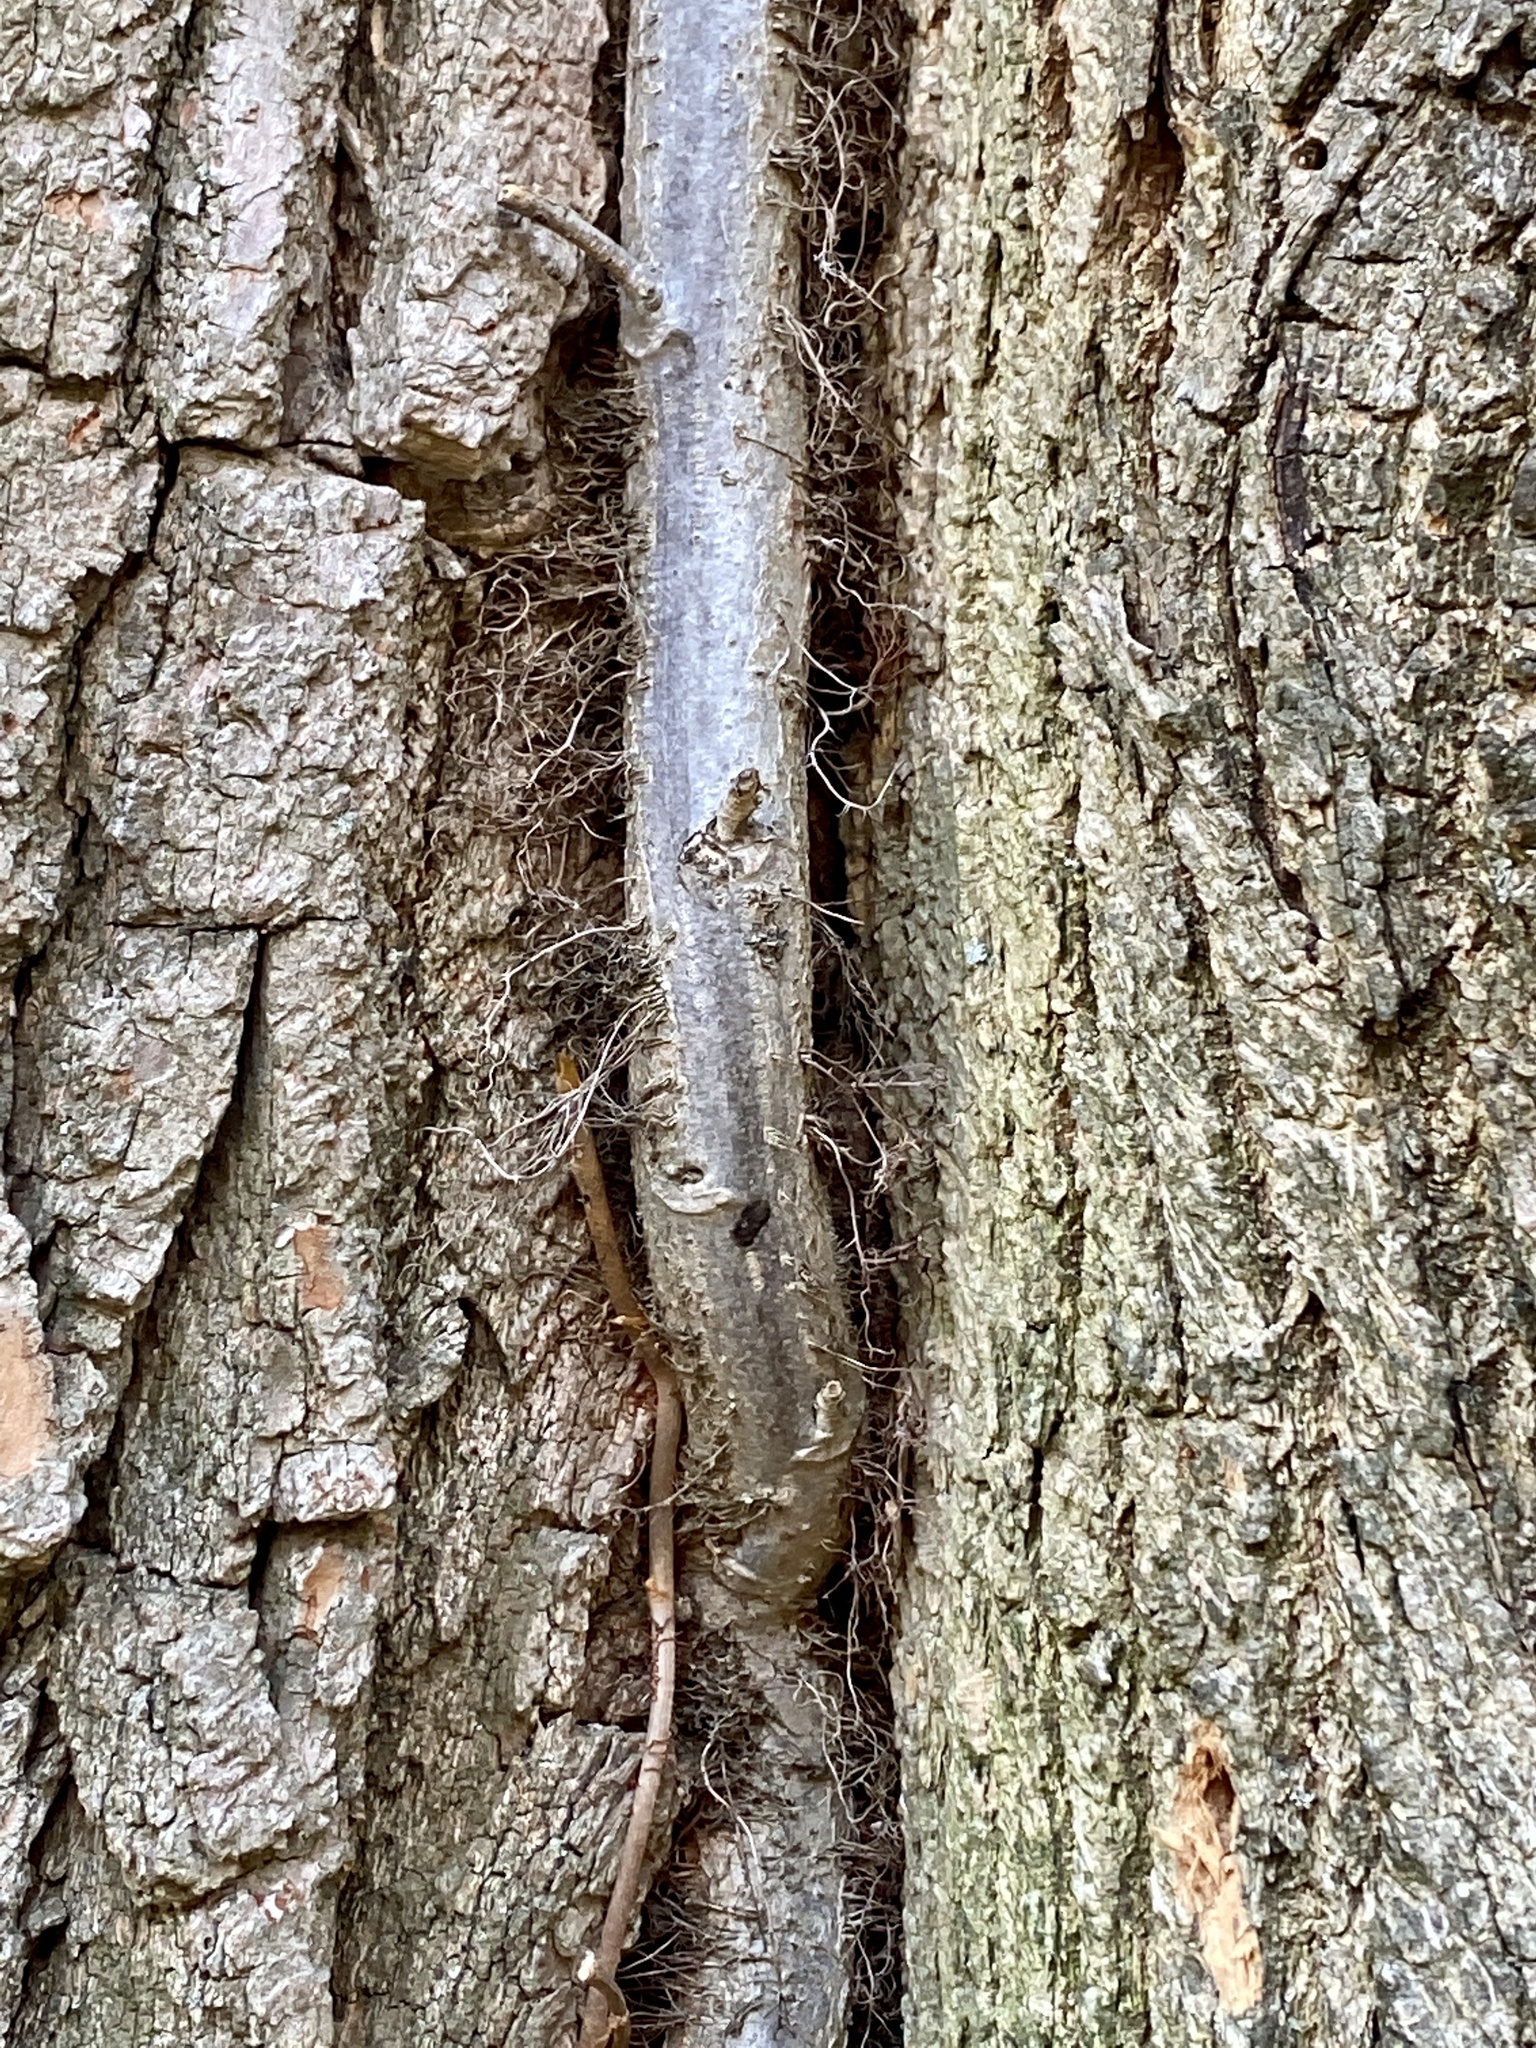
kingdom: Plantae
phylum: Tracheophyta
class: Magnoliopsida
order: Sapindales
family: Anacardiaceae
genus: Toxicodendron
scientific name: Toxicodendron radicans
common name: Poison ivy
